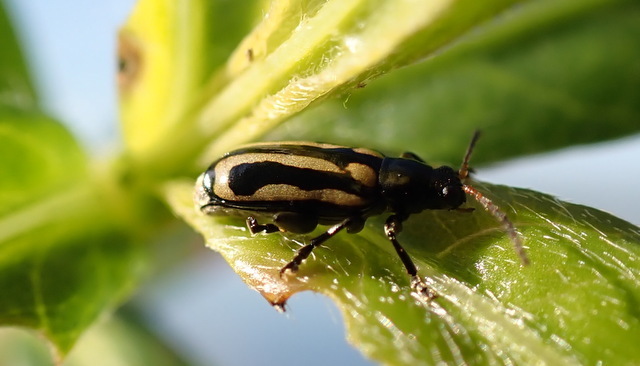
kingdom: Animalia
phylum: Arthropoda
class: Insecta
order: Coleoptera
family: Chrysomelidae
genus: Agasicles
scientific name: Agasicles hygrophila
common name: Alligatorweed flea beetle
